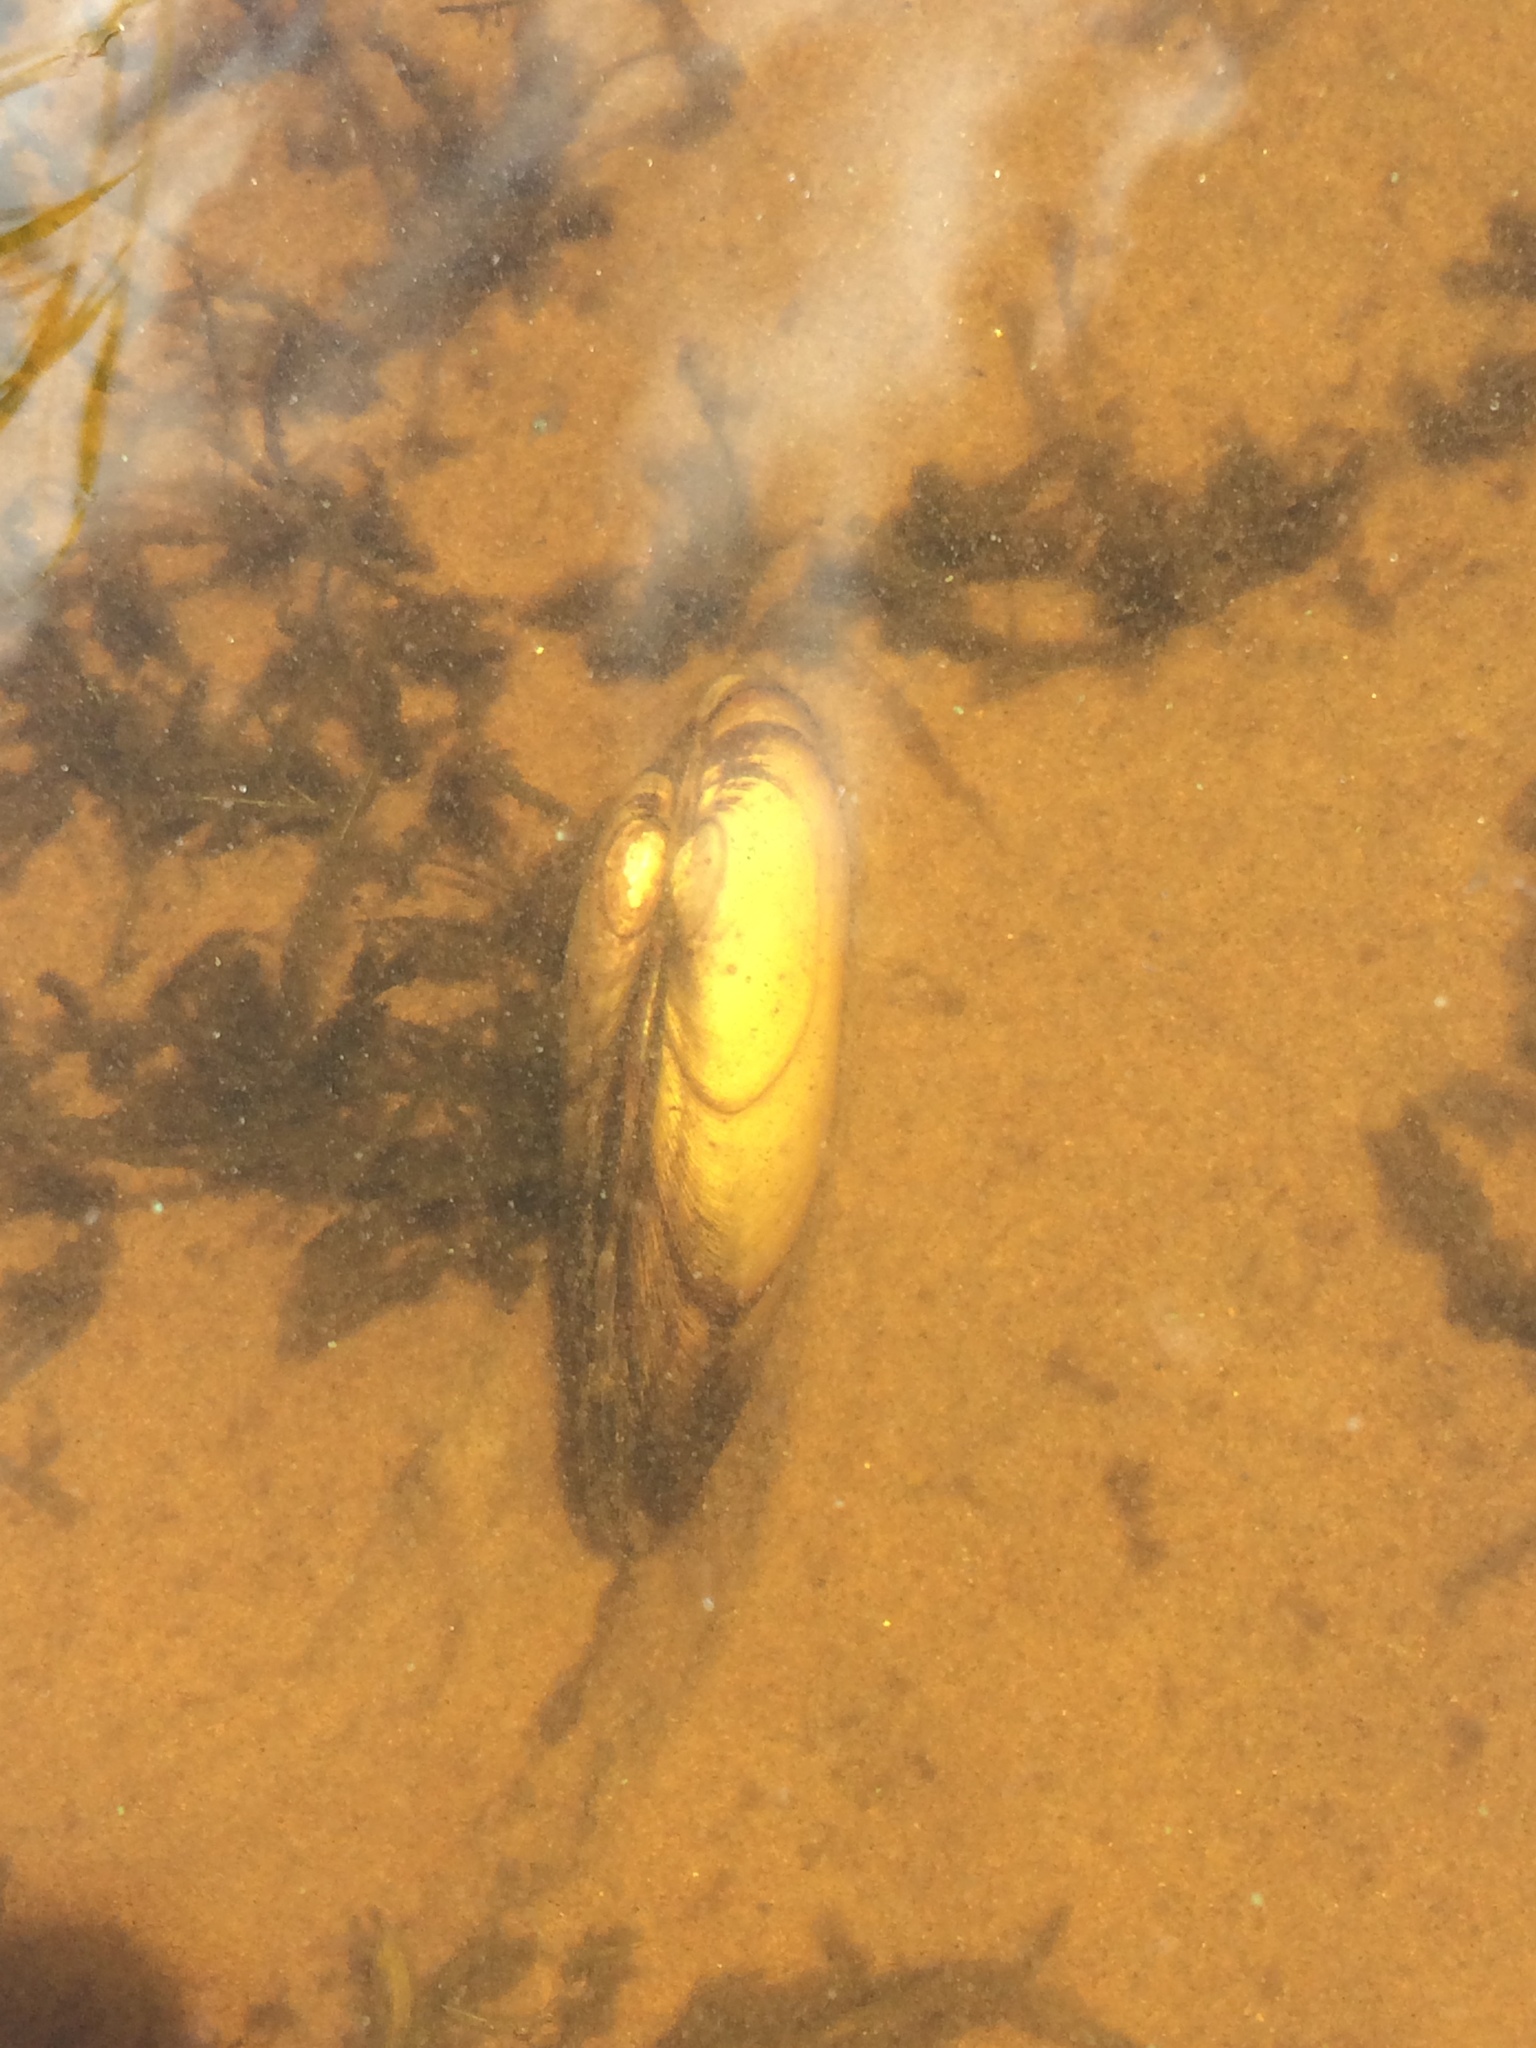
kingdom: Animalia
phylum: Mollusca
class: Bivalvia
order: Unionida
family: Unionidae
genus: Unio
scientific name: Unio pictorum
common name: Painter's mussel
